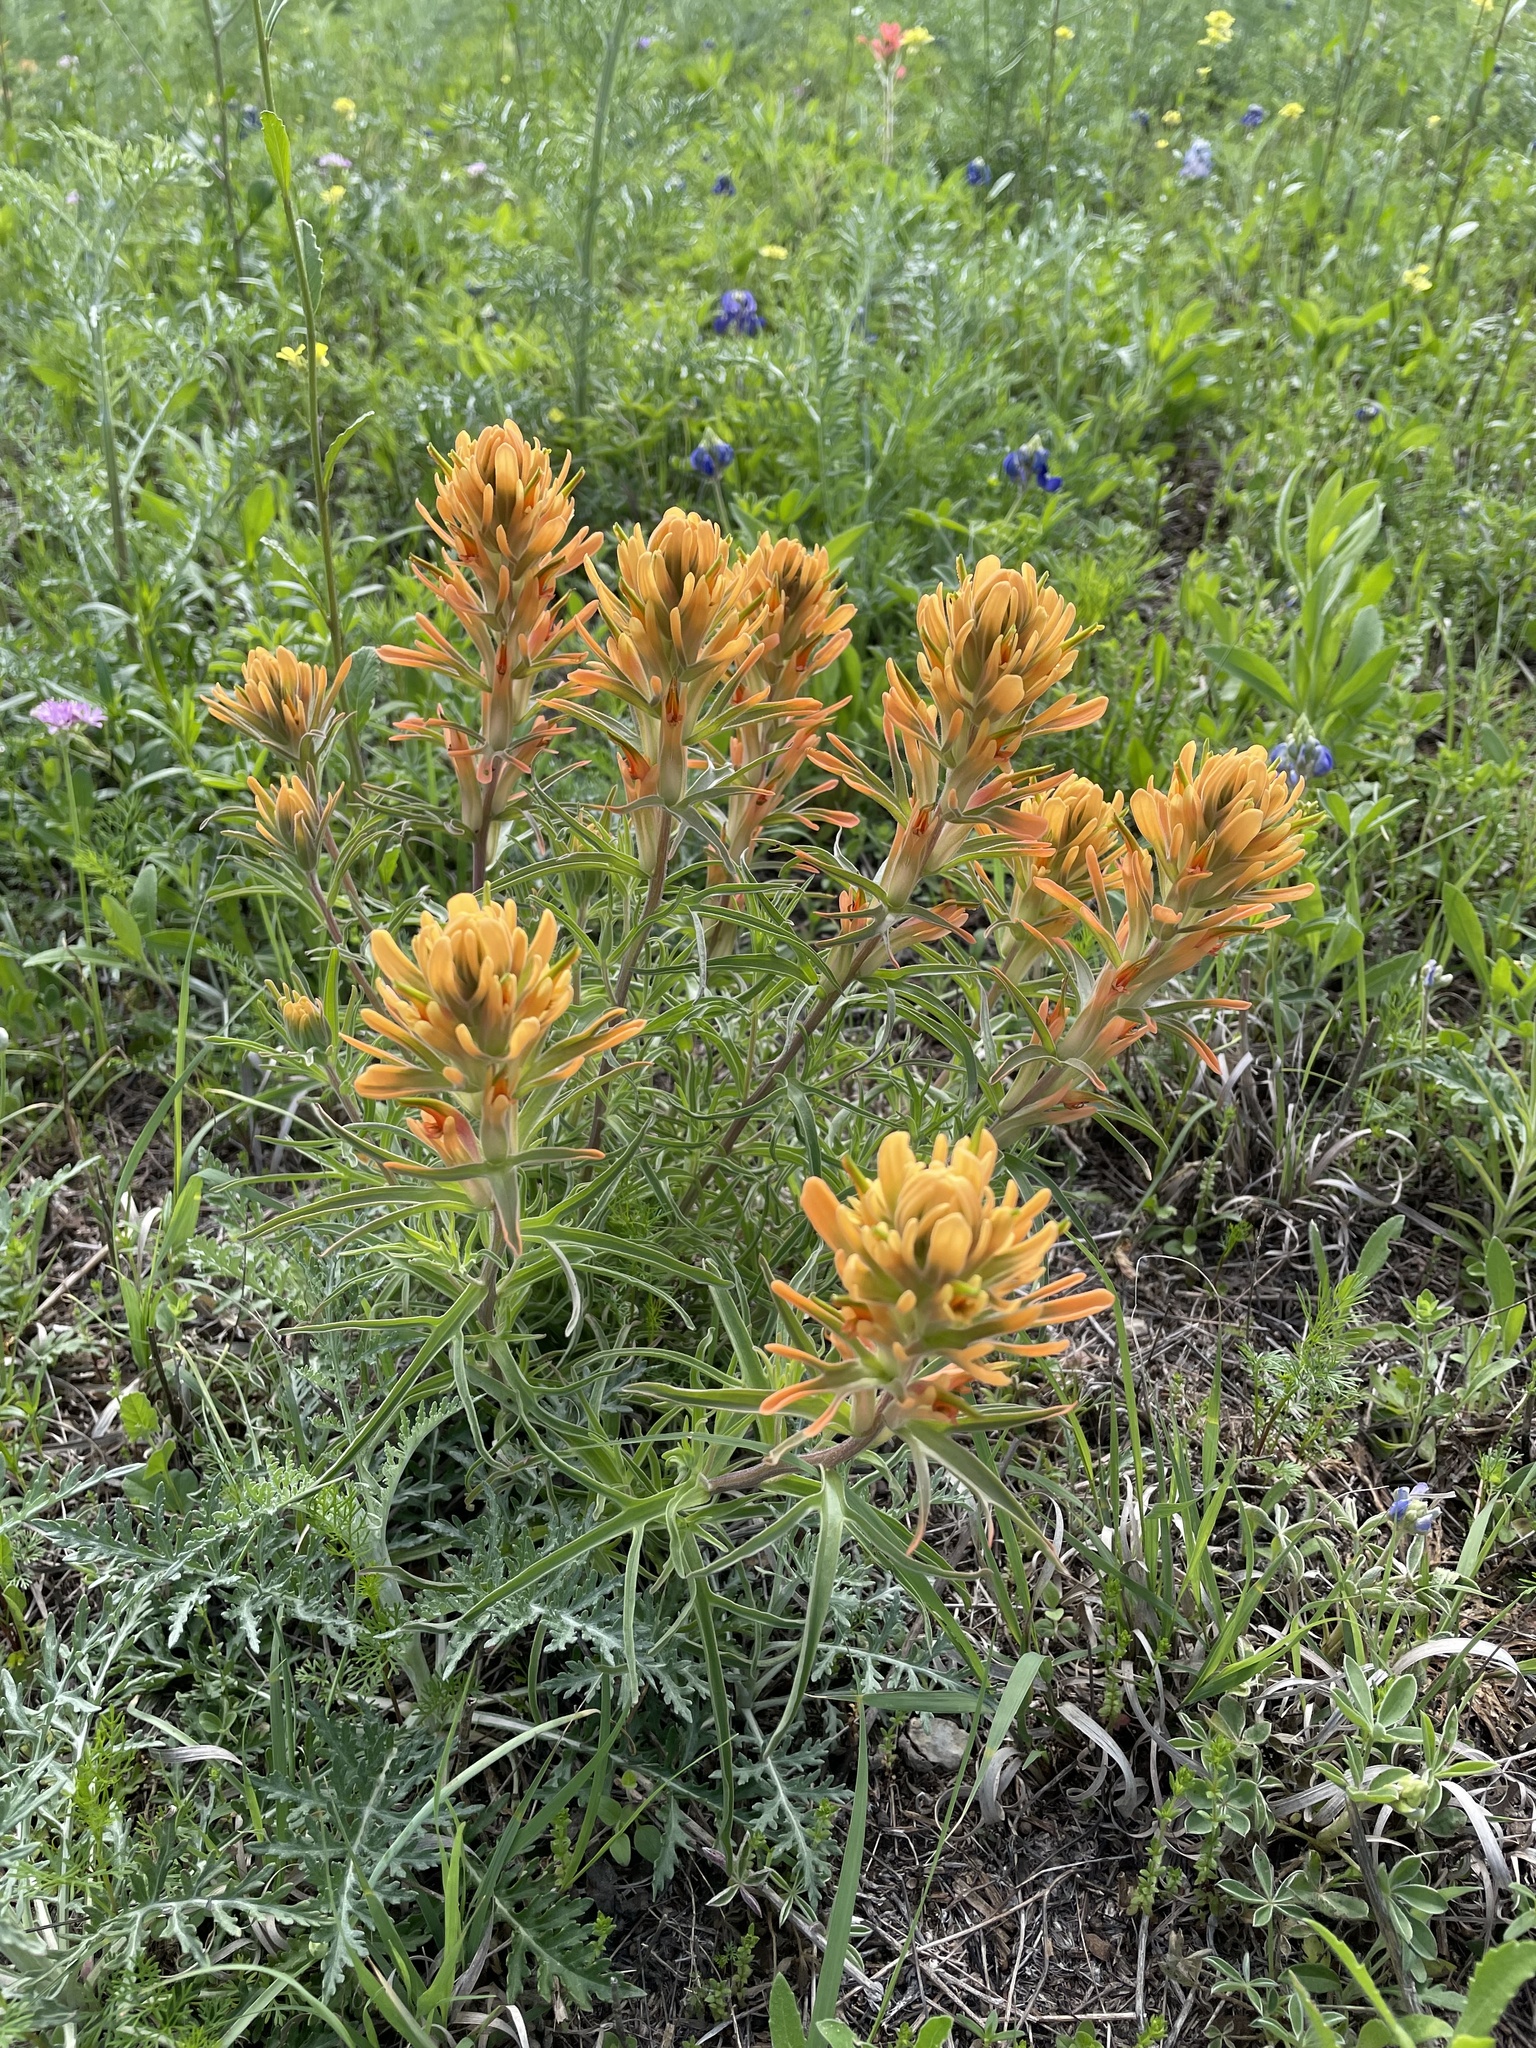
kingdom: Plantae
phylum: Tracheophyta
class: Magnoliopsida
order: Lamiales
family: Orobanchaceae
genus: Castilleja
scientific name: Castilleja lindheimeri
